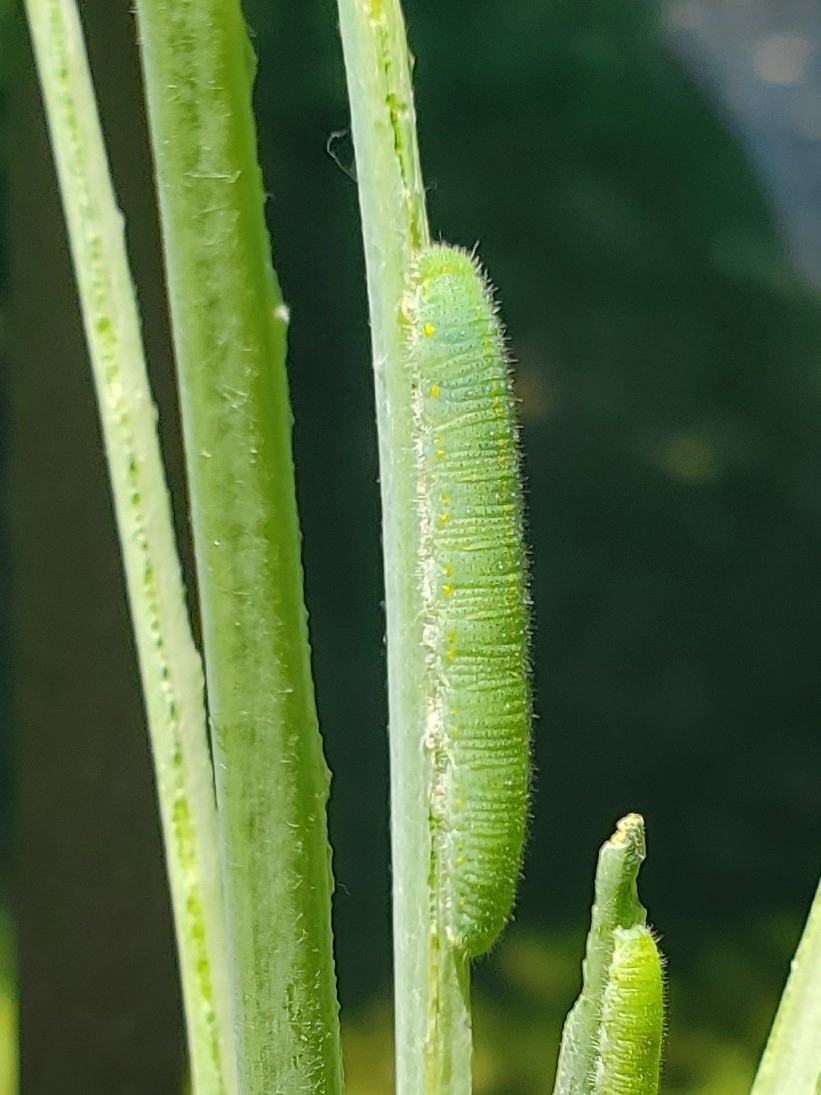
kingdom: Animalia
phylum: Arthropoda
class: Insecta
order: Lepidoptera
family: Pieridae
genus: Pieris
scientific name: Pieris rapae
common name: Small white
